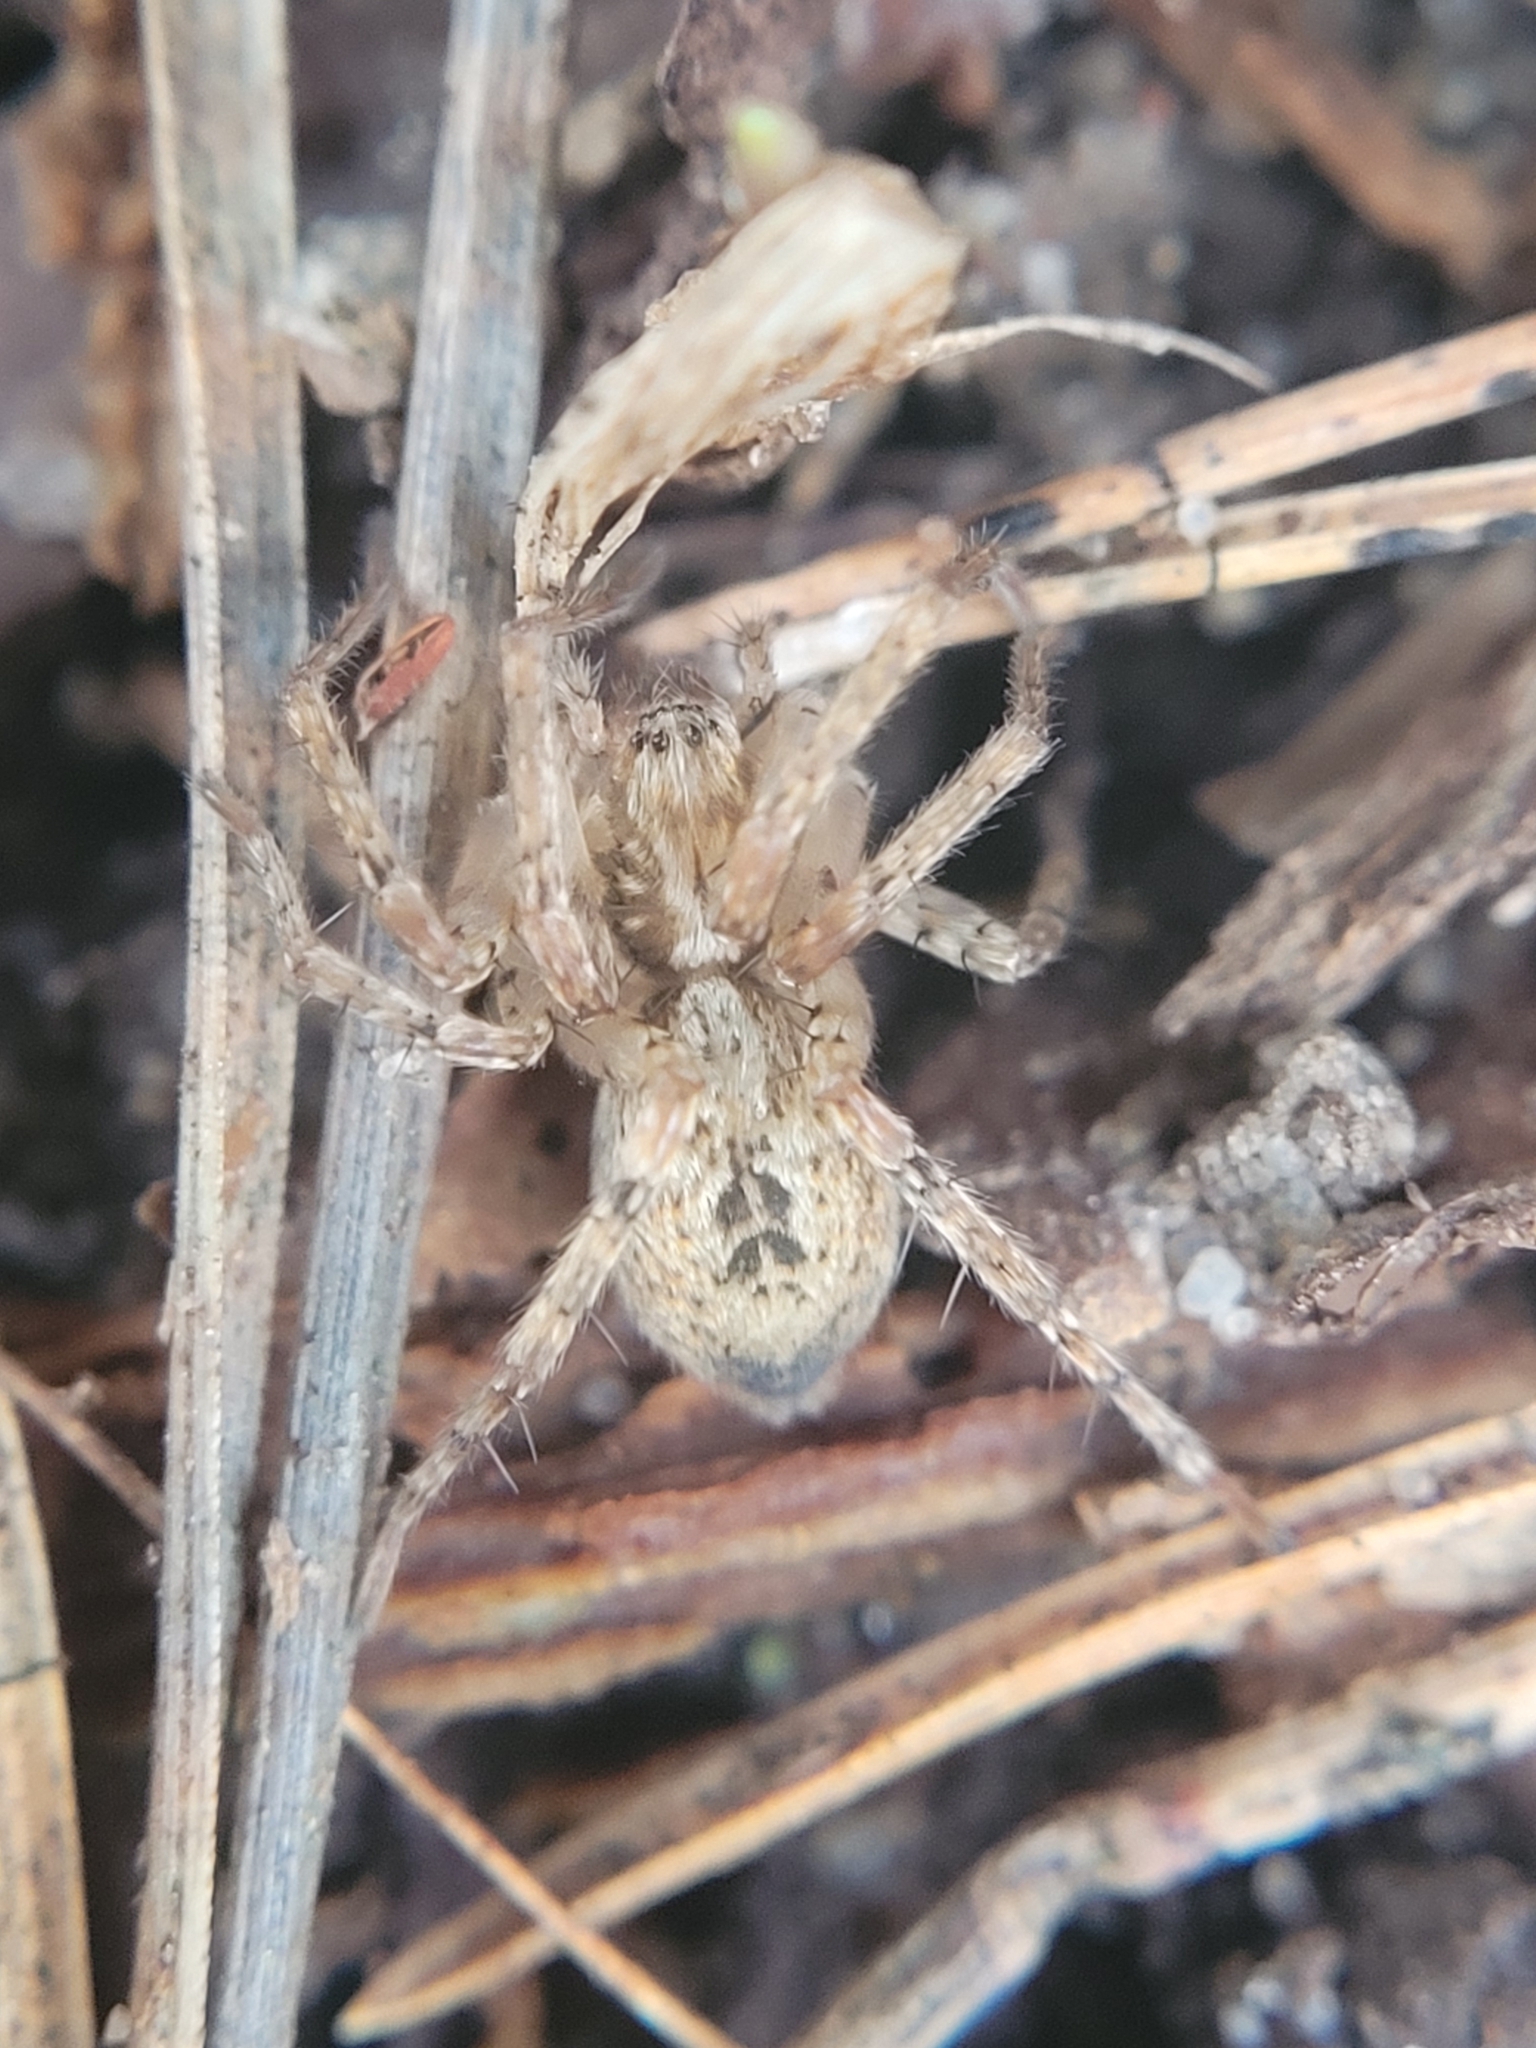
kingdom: Animalia
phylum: Arthropoda
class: Arachnida
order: Araneae
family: Anyphaenidae
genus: Anyphaena
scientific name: Anyphaena accentuata
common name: Buzzing spider
